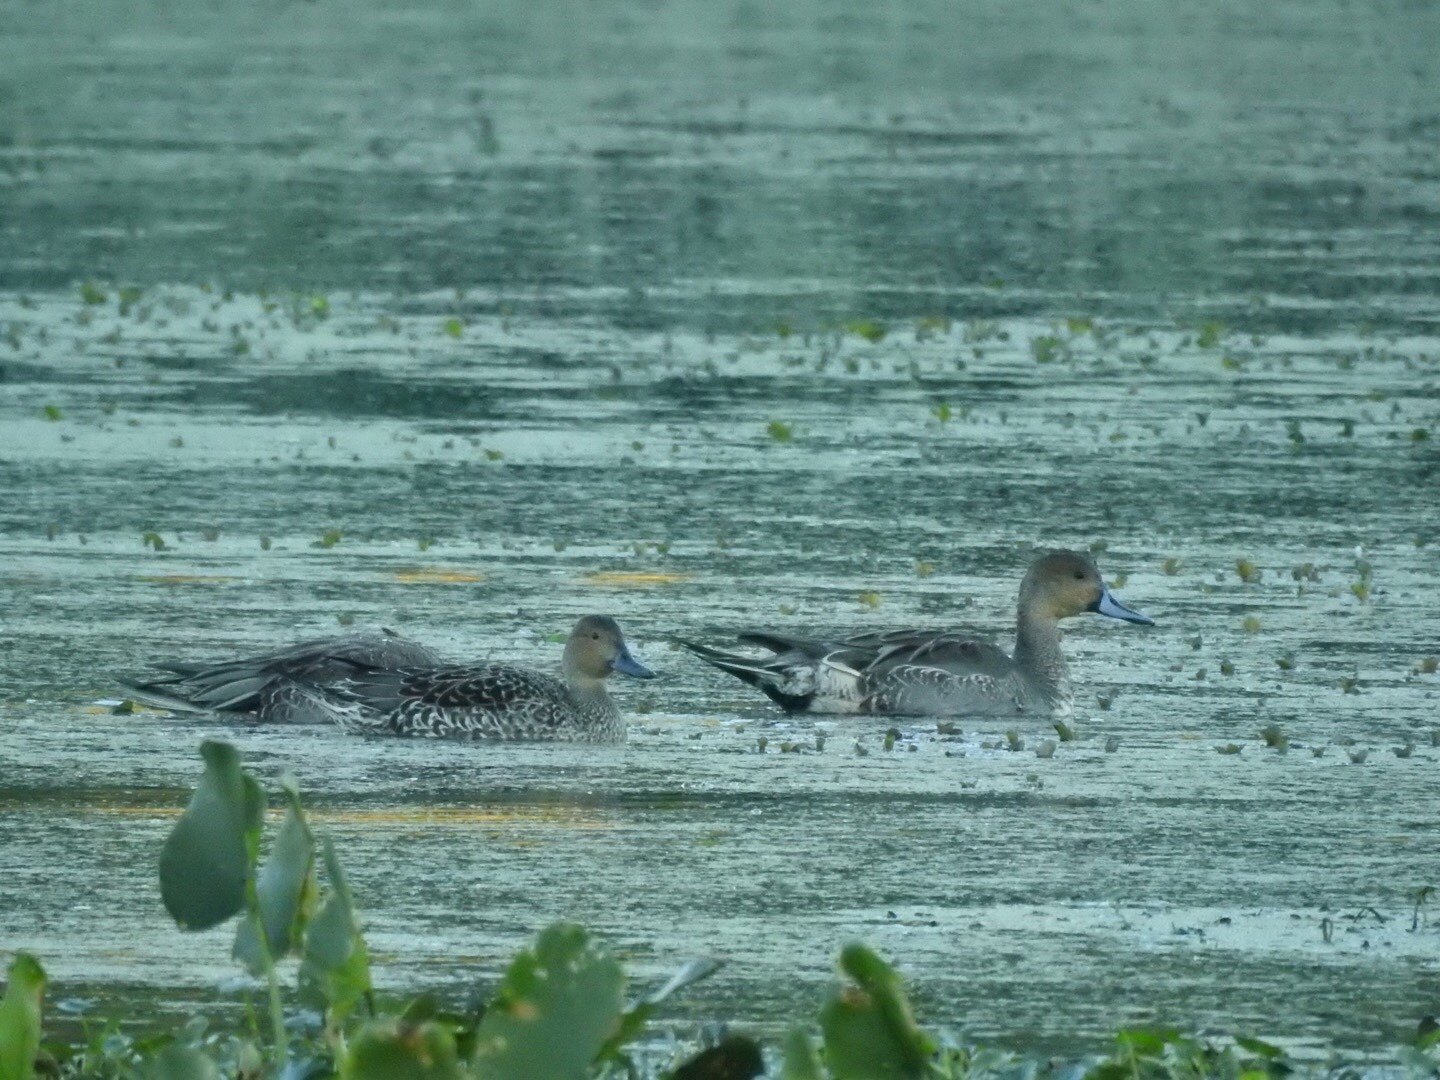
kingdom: Animalia
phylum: Chordata
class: Aves
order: Anseriformes
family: Anatidae
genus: Anas
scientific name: Anas acuta
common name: Northern pintail
